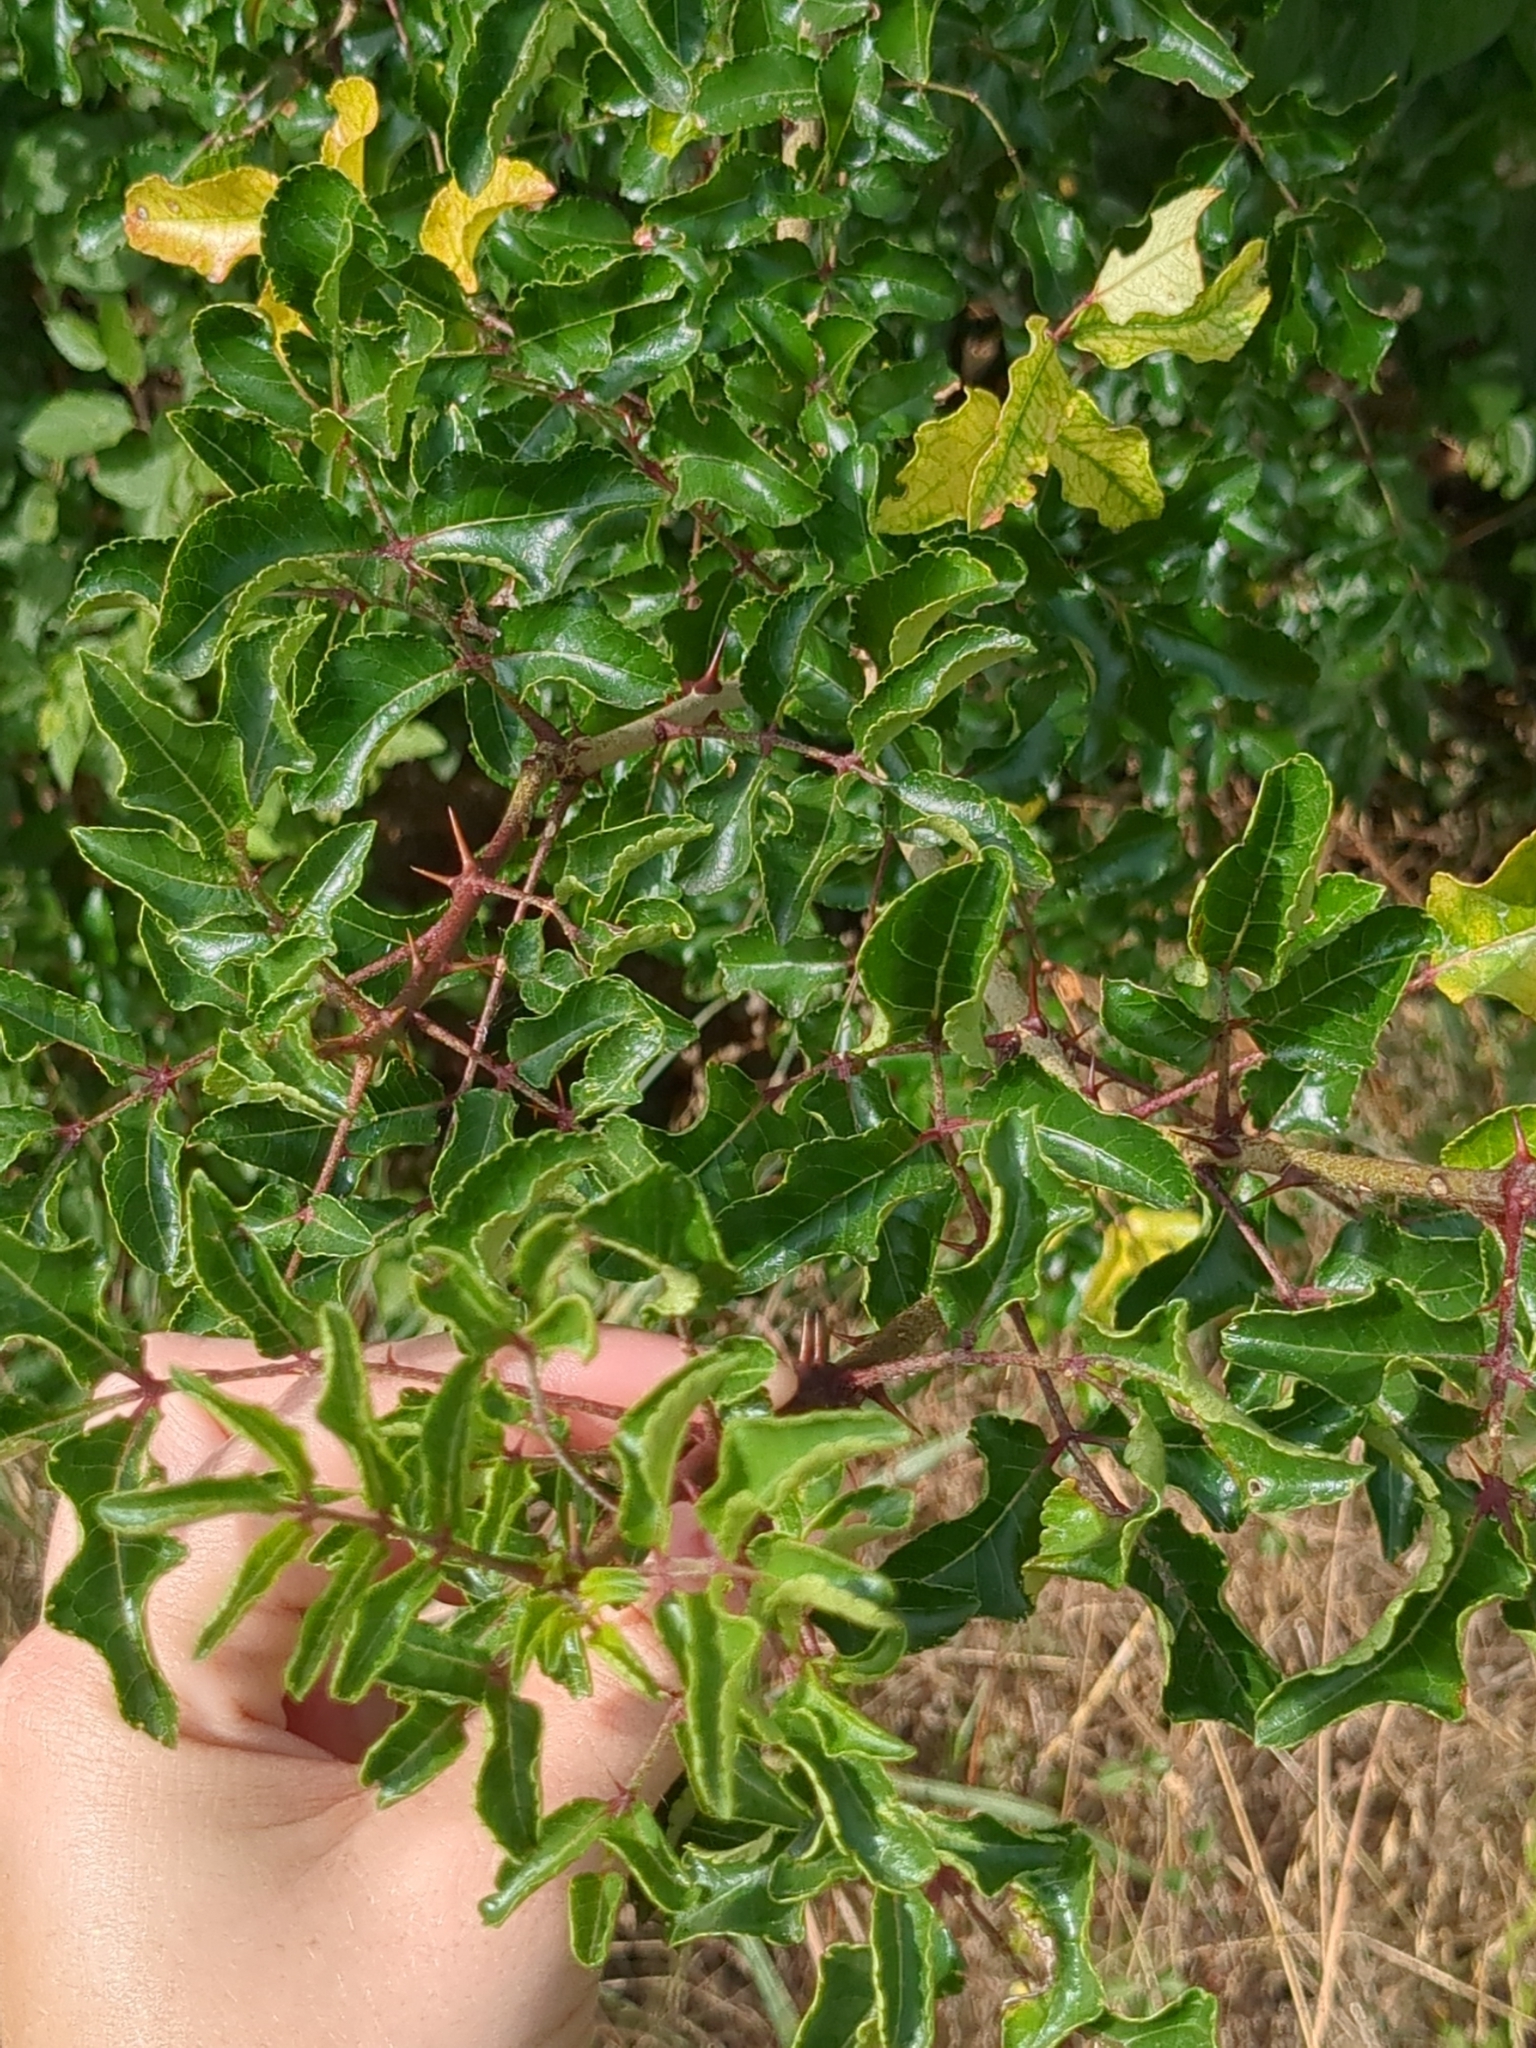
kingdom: Plantae
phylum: Tracheophyta
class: Magnoliopsida
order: Sapindales
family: Rutaceae
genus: Zanthoxylum
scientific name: Zanthoxylum clava-herculis
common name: Hercules'-club
